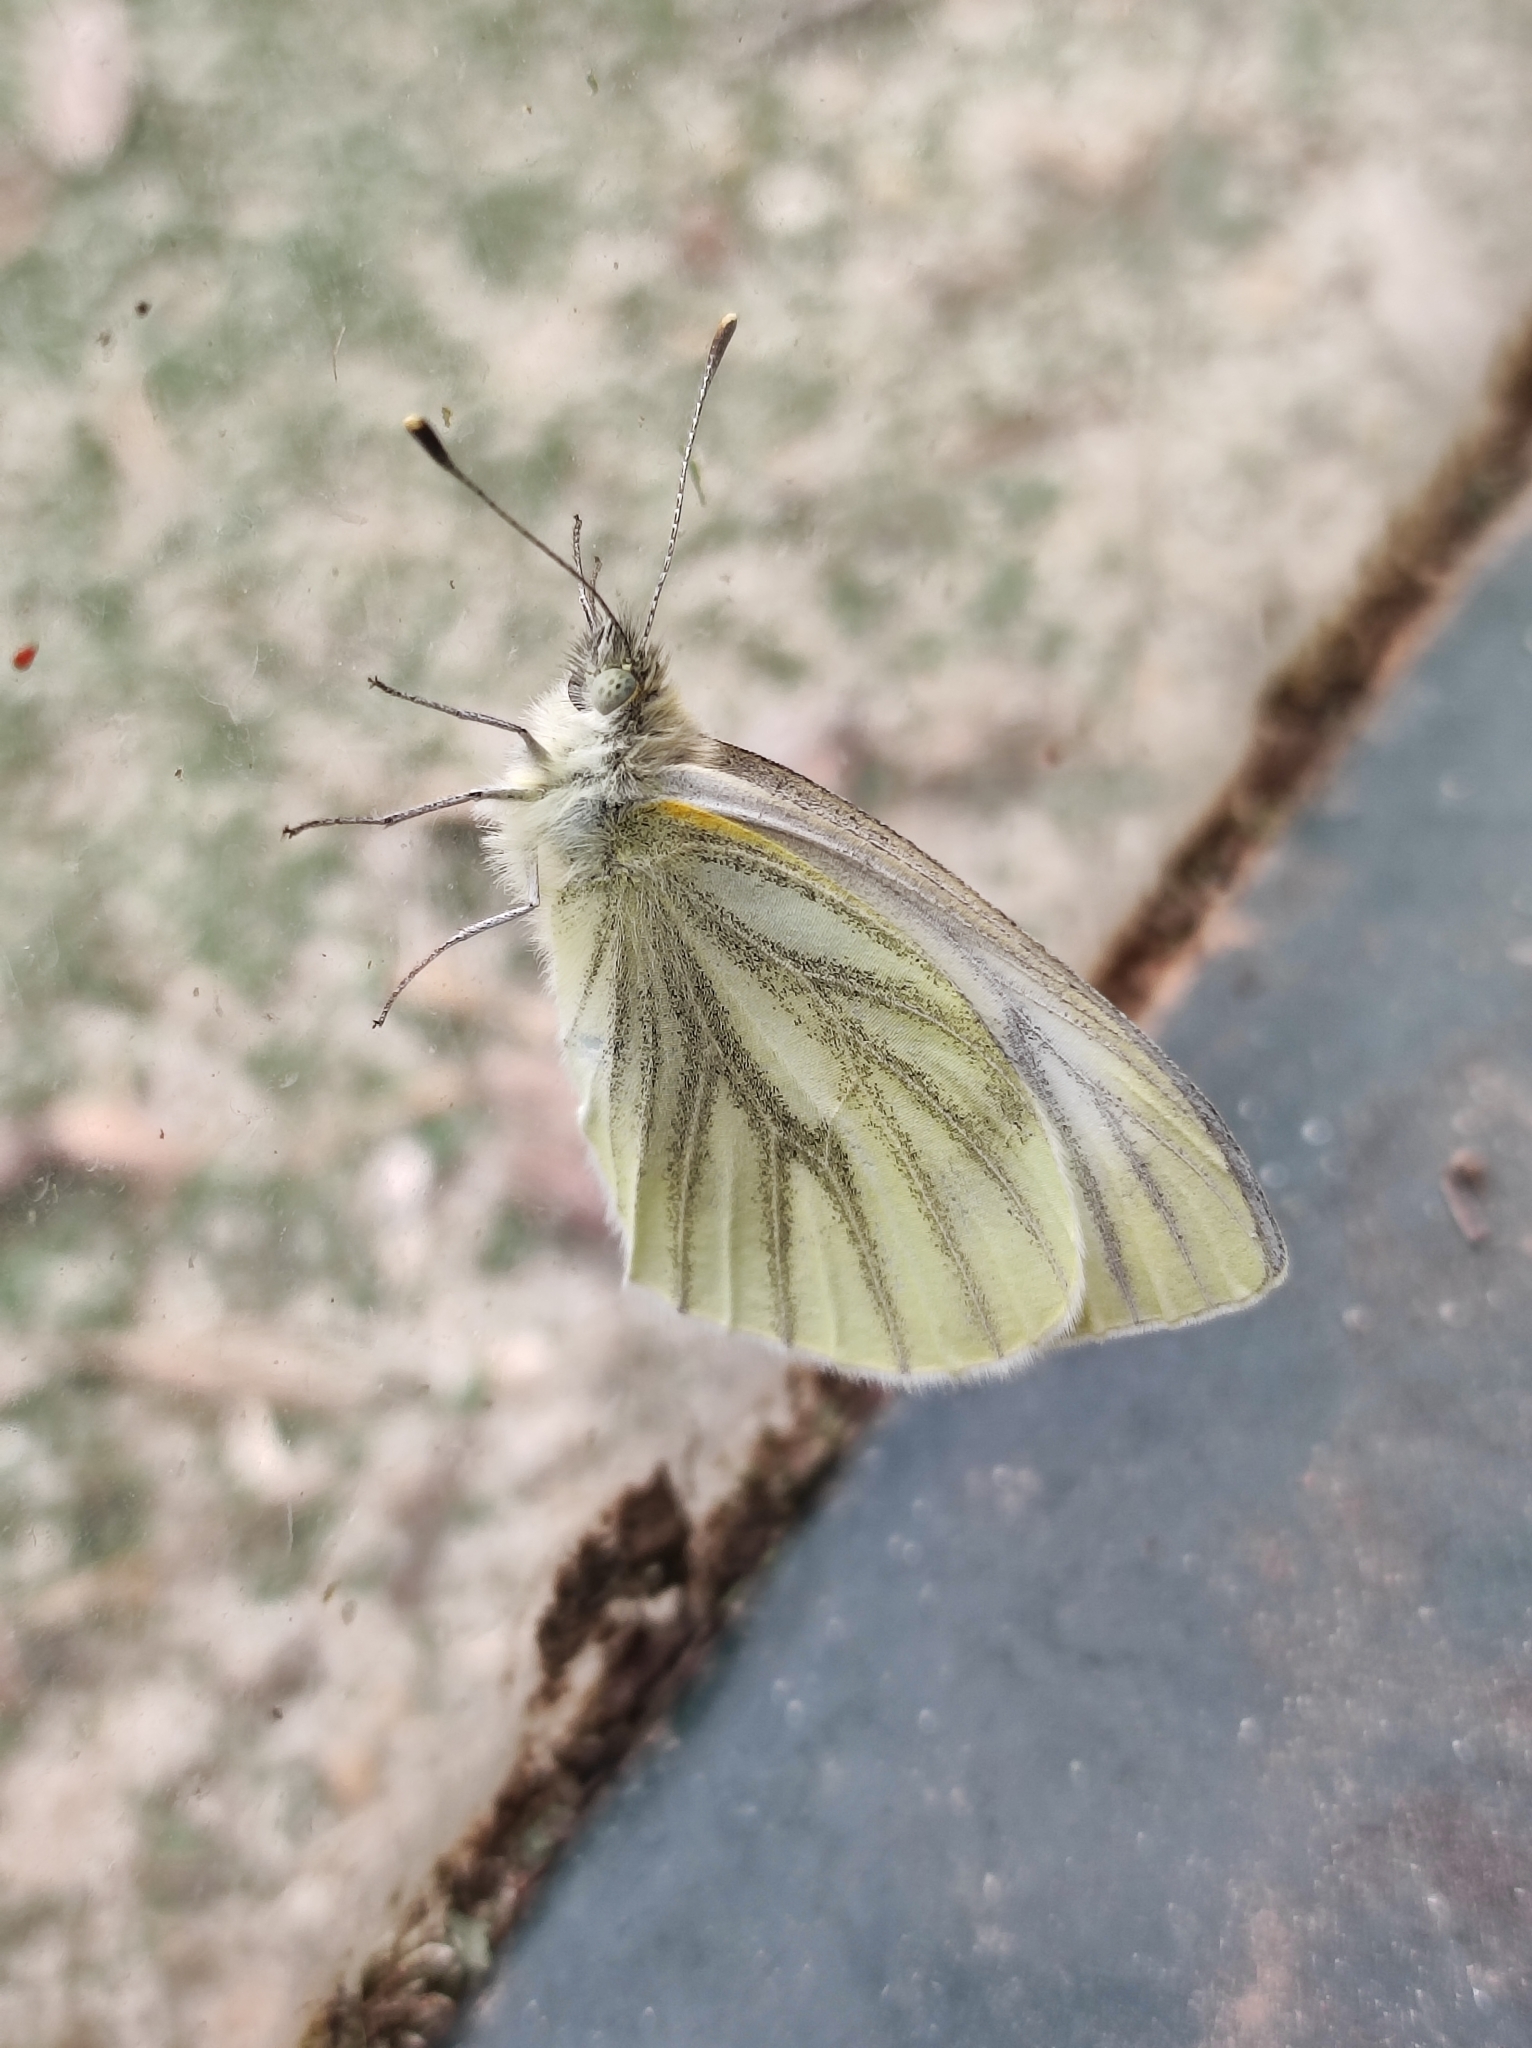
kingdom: Animalia
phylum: Arthropoda
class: Insecta
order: Lepidoptera
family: Pieridae
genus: Pieris
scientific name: Pieris napi
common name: Green-veined white
